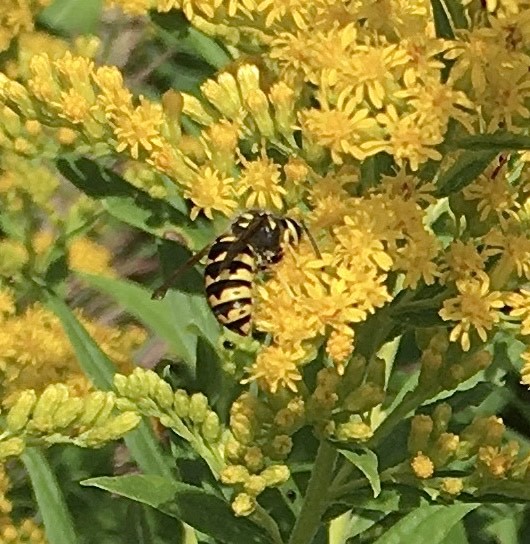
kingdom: Animalia
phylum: Arthropoda
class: Insecta
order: Hymenoptera
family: Vespidae
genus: Dolichovespula
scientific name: Dolichovespula arenaria
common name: Aerial yellowjacket
